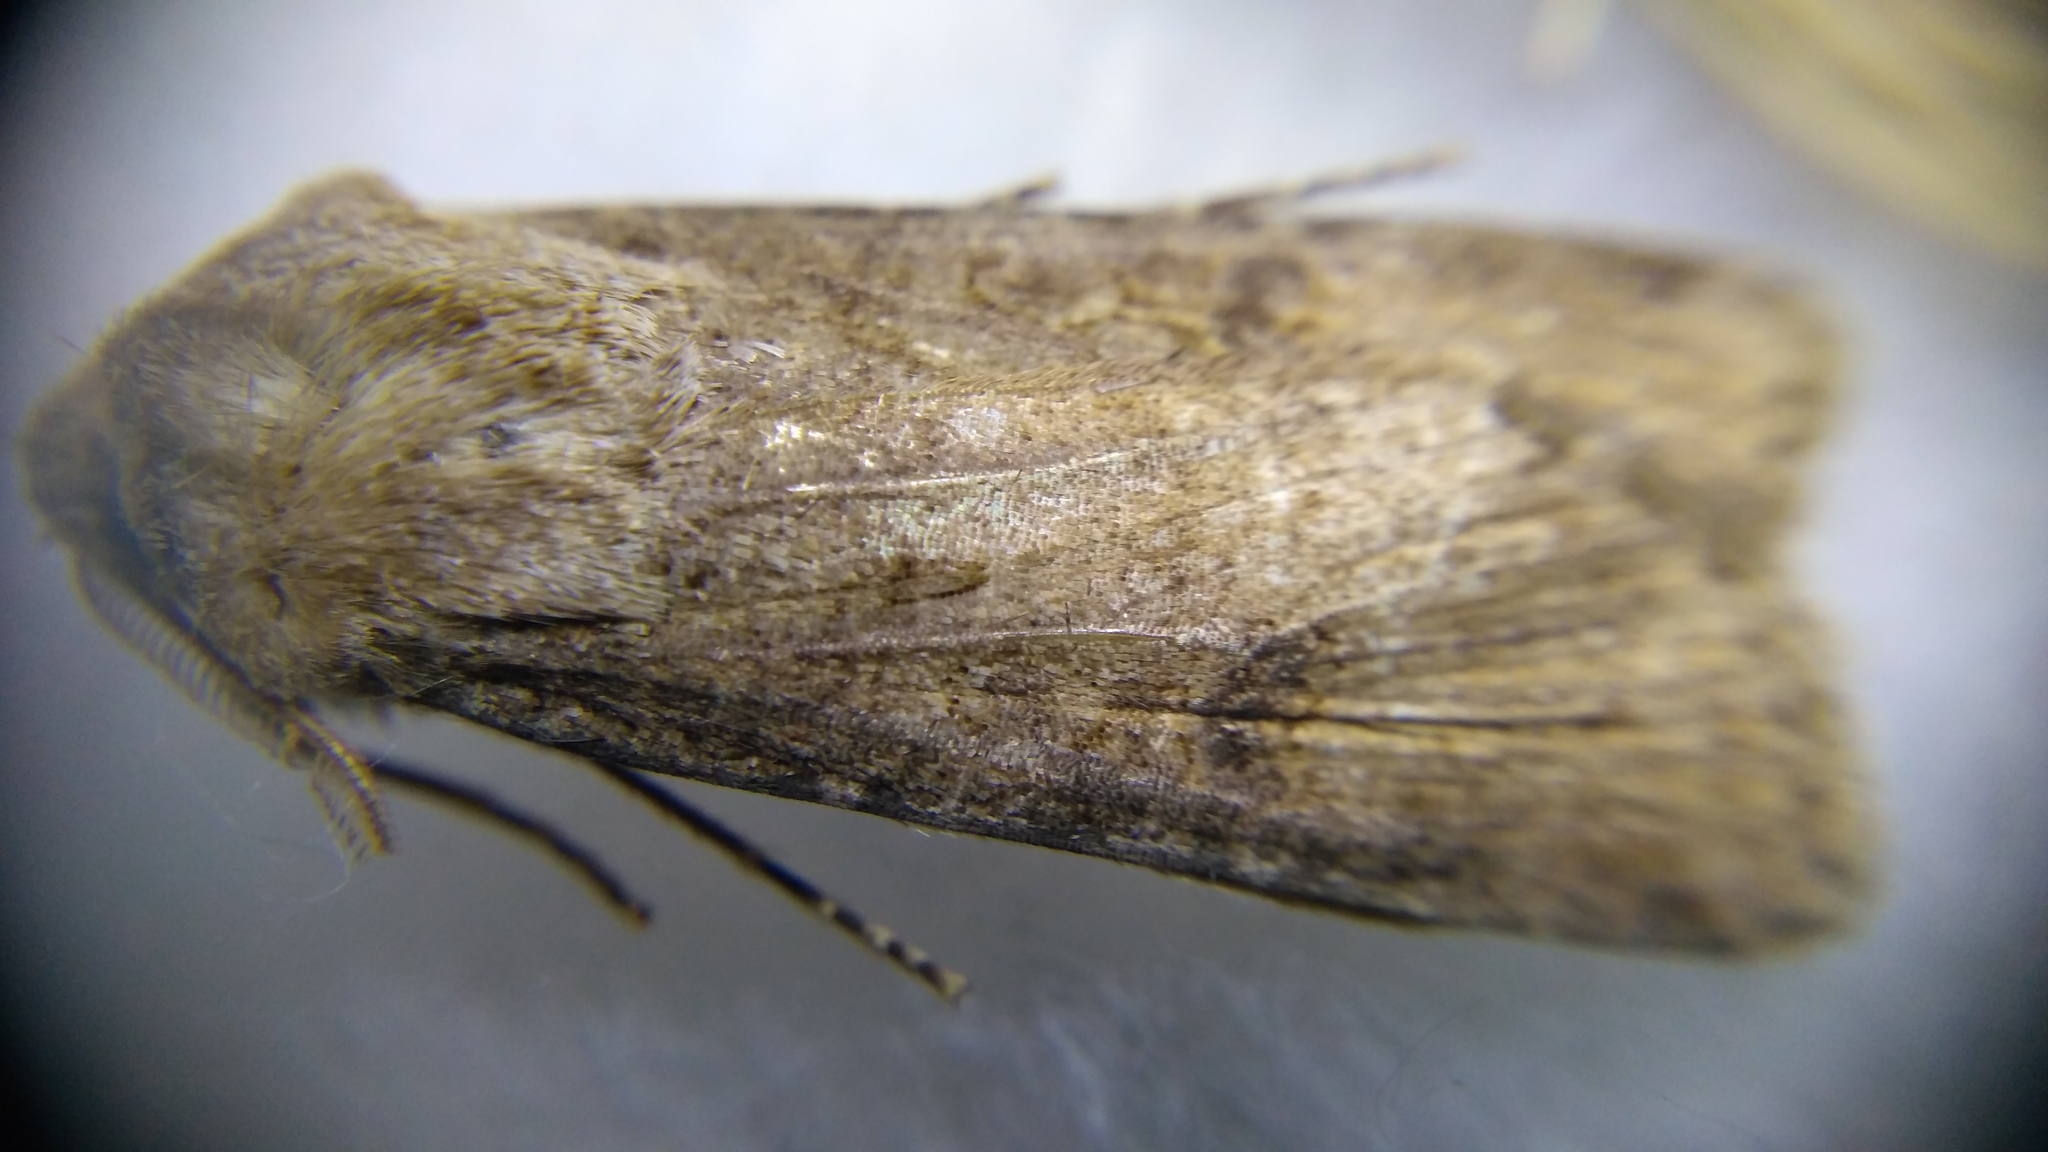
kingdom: Animalia
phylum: Arthropoda
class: Insecta
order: Lepidoptera
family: Noctuidae
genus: Agrotis
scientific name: Agrotis segetum
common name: Turnip moth
